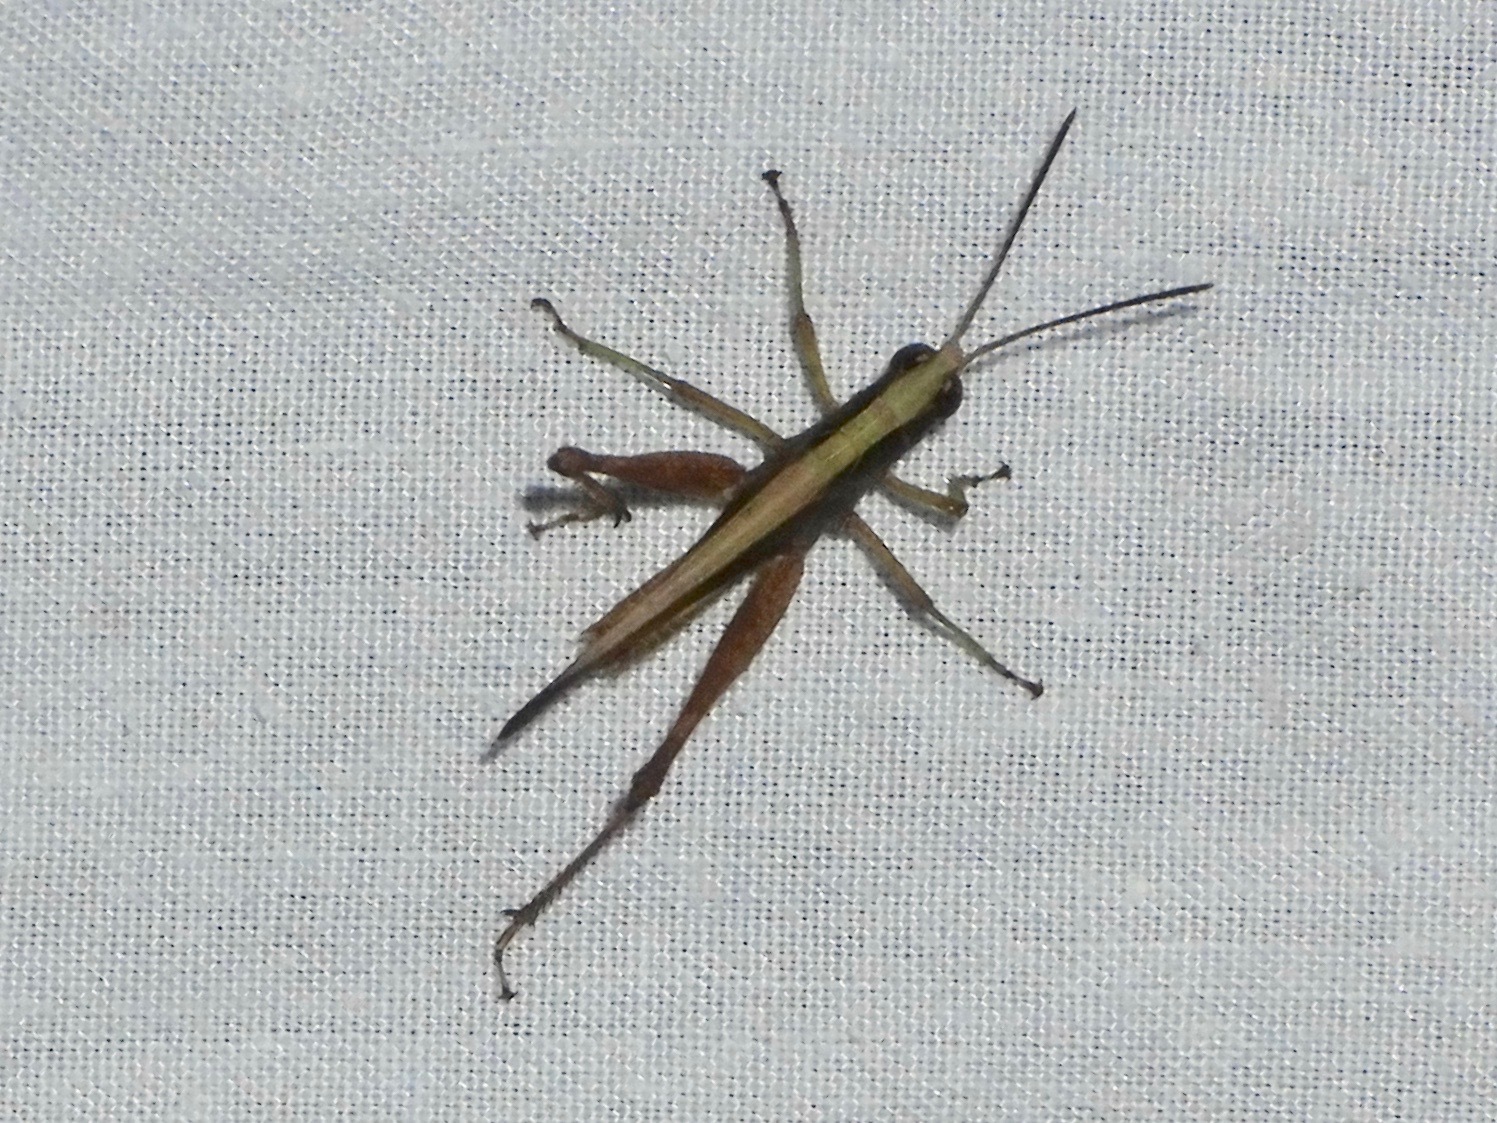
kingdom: Animalia
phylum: Arthropoda
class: Insecta
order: Orthoptera
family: Acrididae
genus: Orphula
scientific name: Orphula azteca
